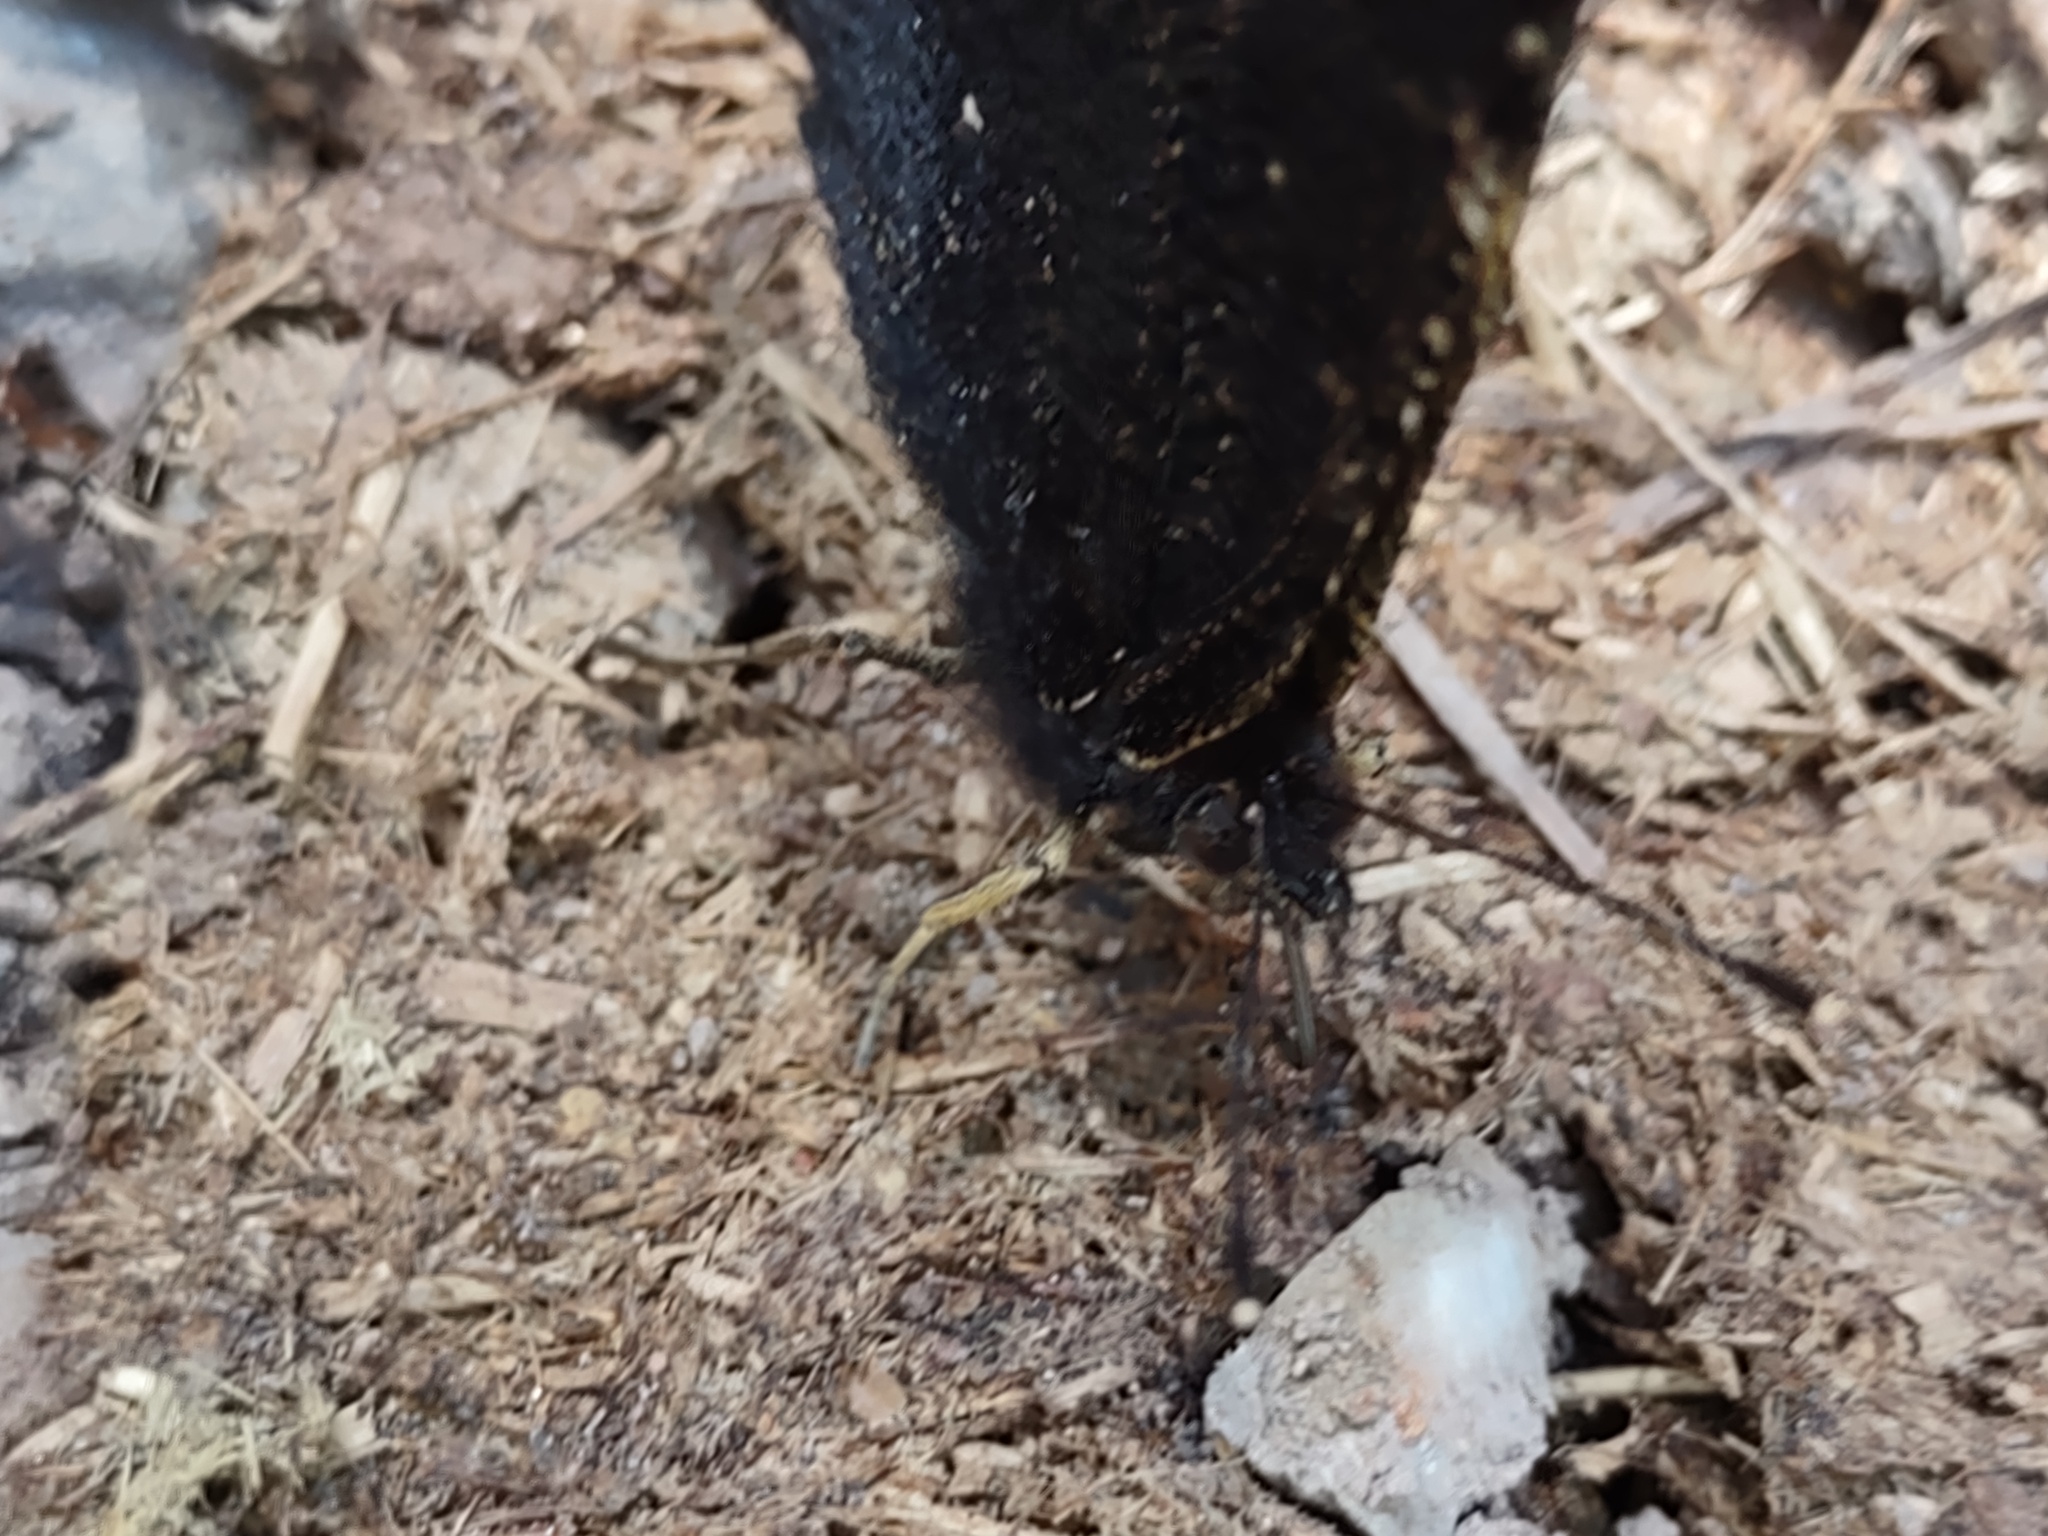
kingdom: Animalia
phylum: Arthropoda
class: Insecta
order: Lepidoptera
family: Nymphalidae
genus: Nymphalis
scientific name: Nymphalis antiopa
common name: Camberwell beauty
